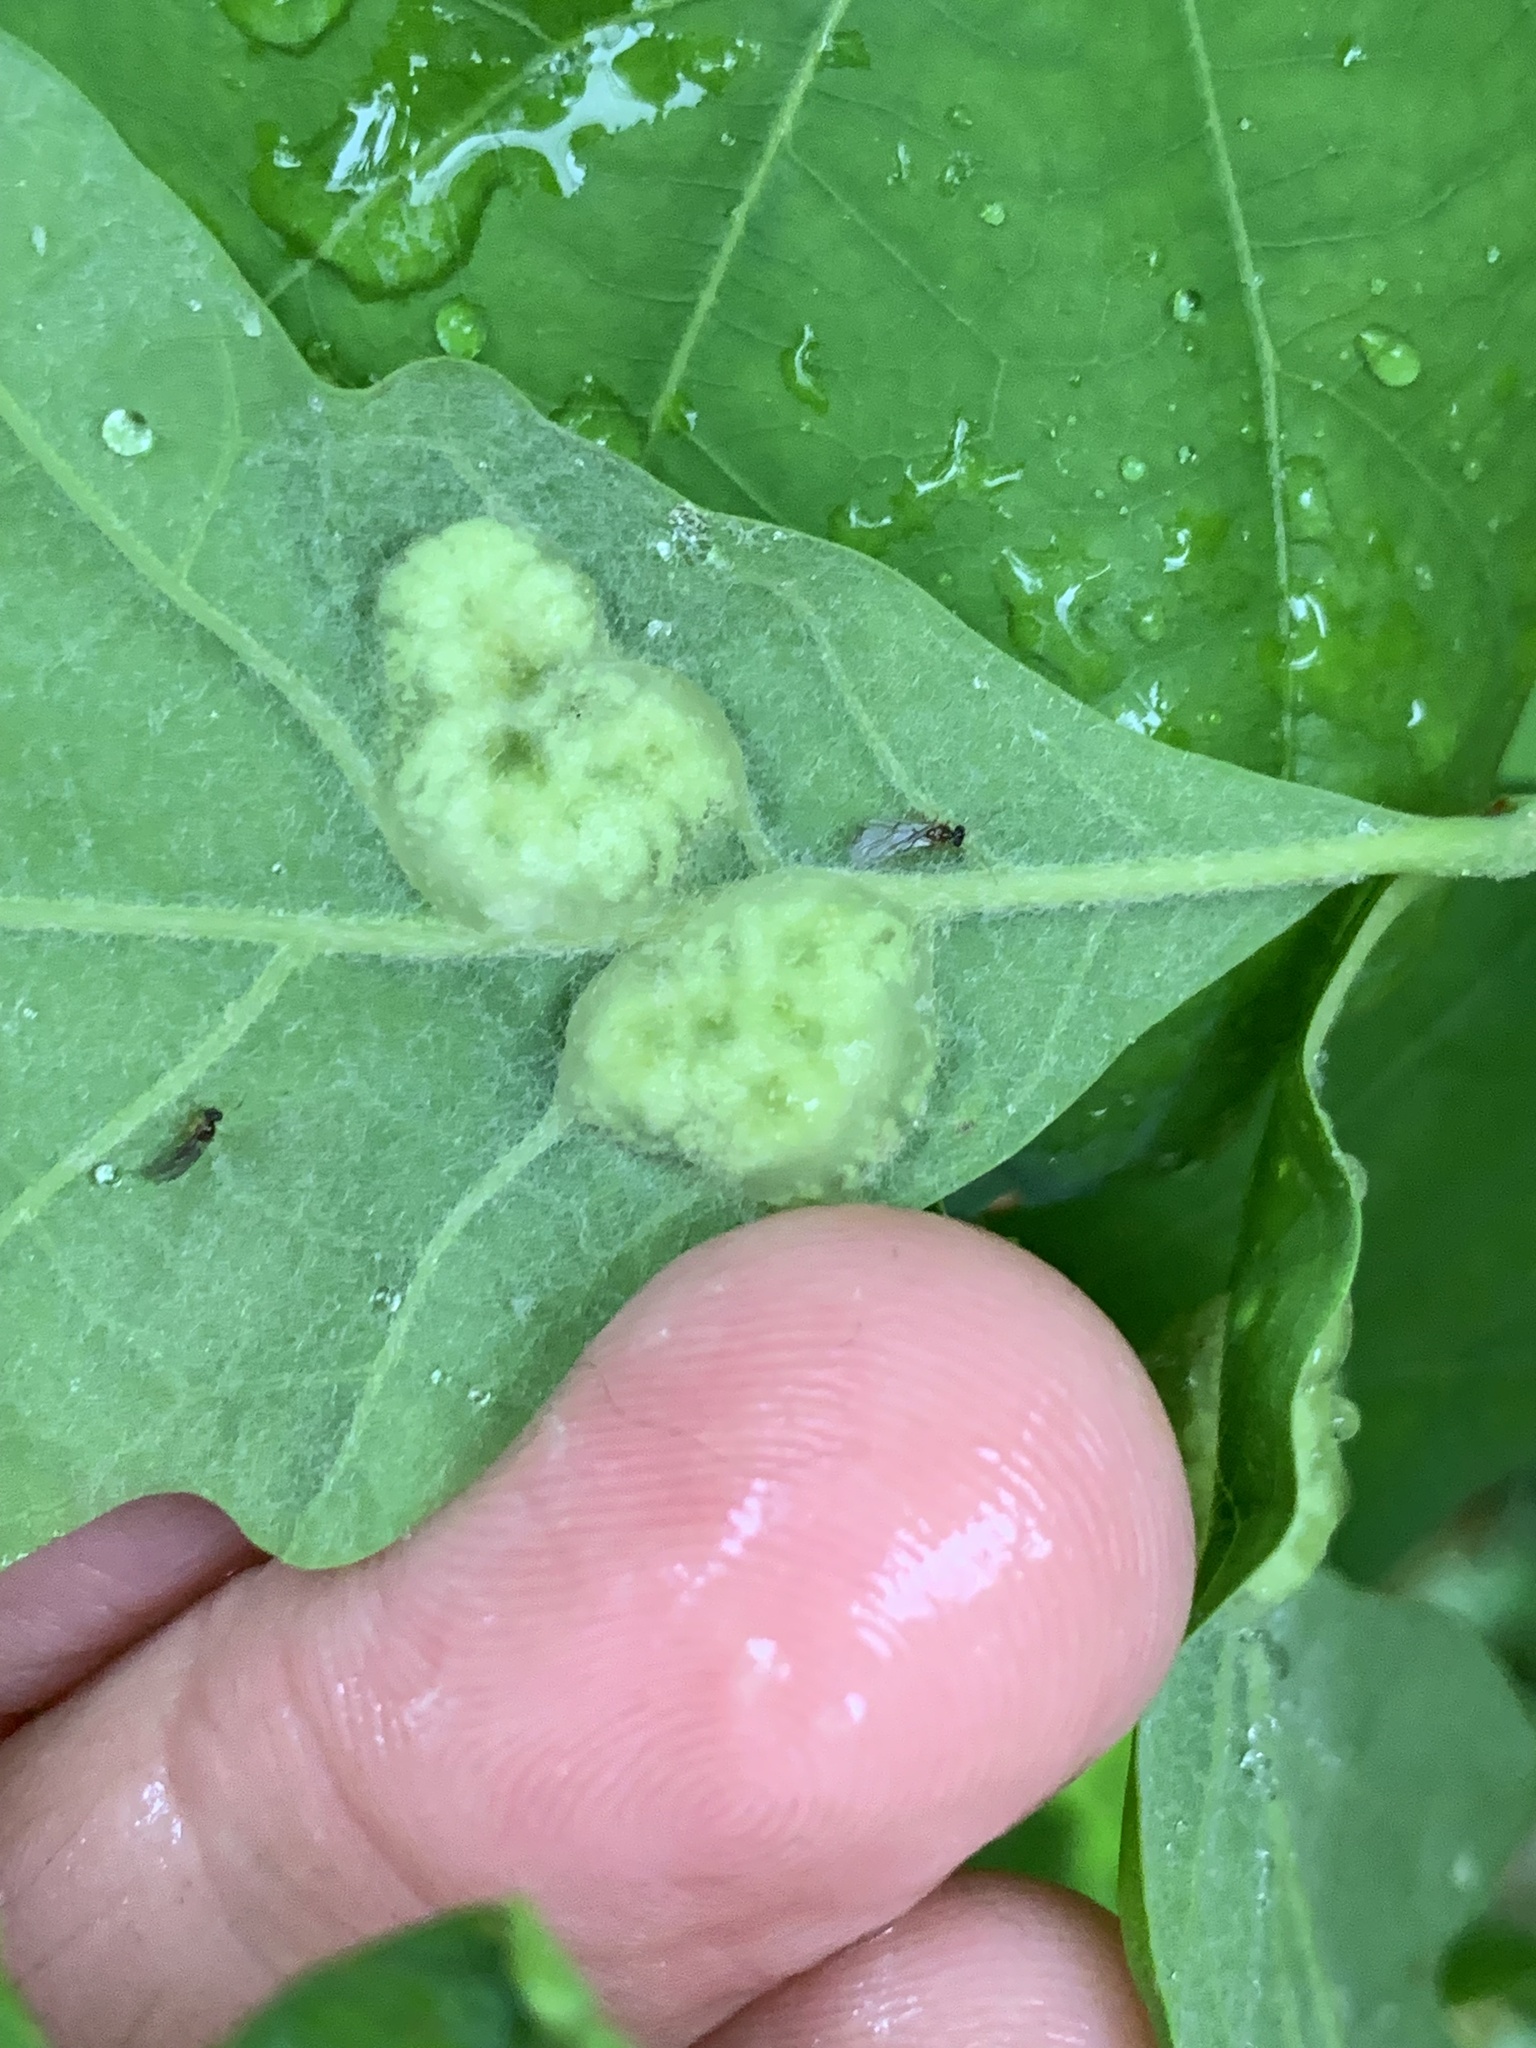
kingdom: Animalia
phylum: Arthropoda
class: Insecta
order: Hymenoptera
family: Cynipidae
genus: Neuroterus
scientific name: Neuroterus quercusirregularis
